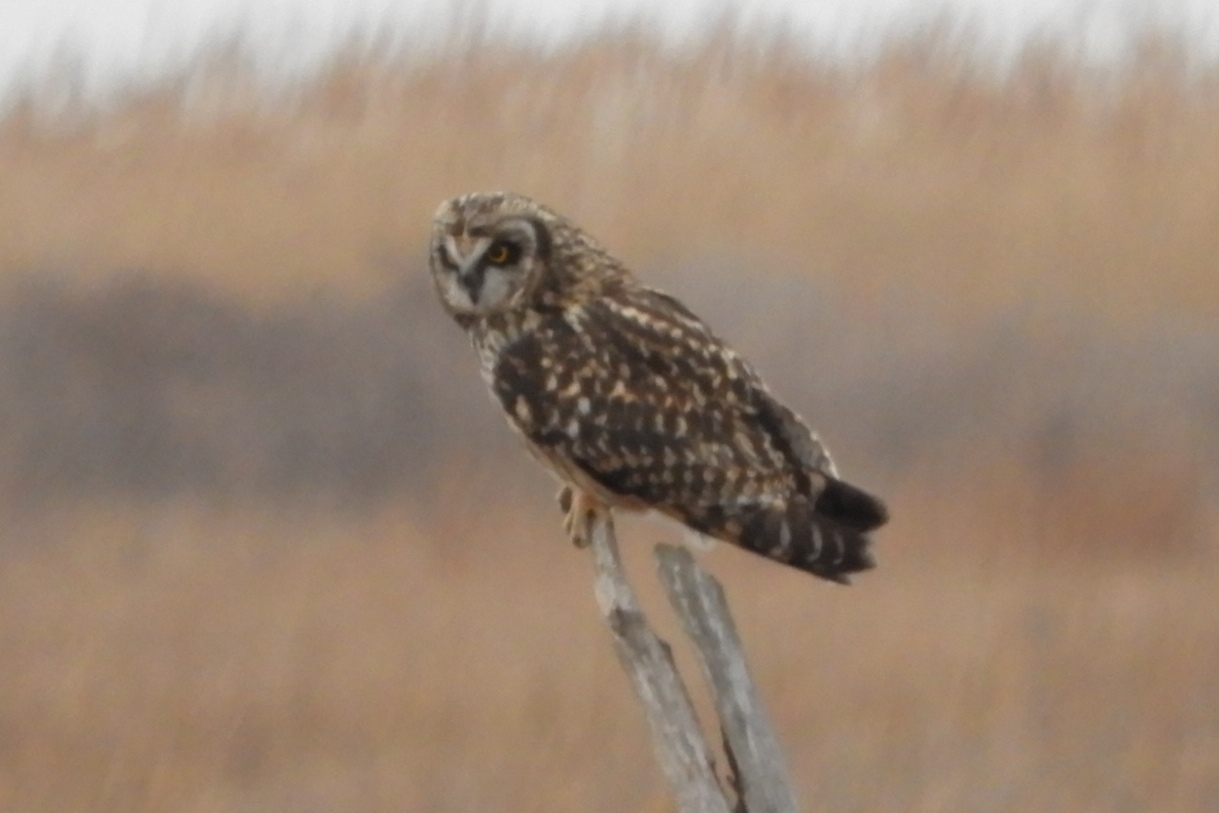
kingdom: Animalia
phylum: Chordata
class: Aves
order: Strigiformes
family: Strigidae
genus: Asio
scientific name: Asio flammeus
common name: Short-eared owl
